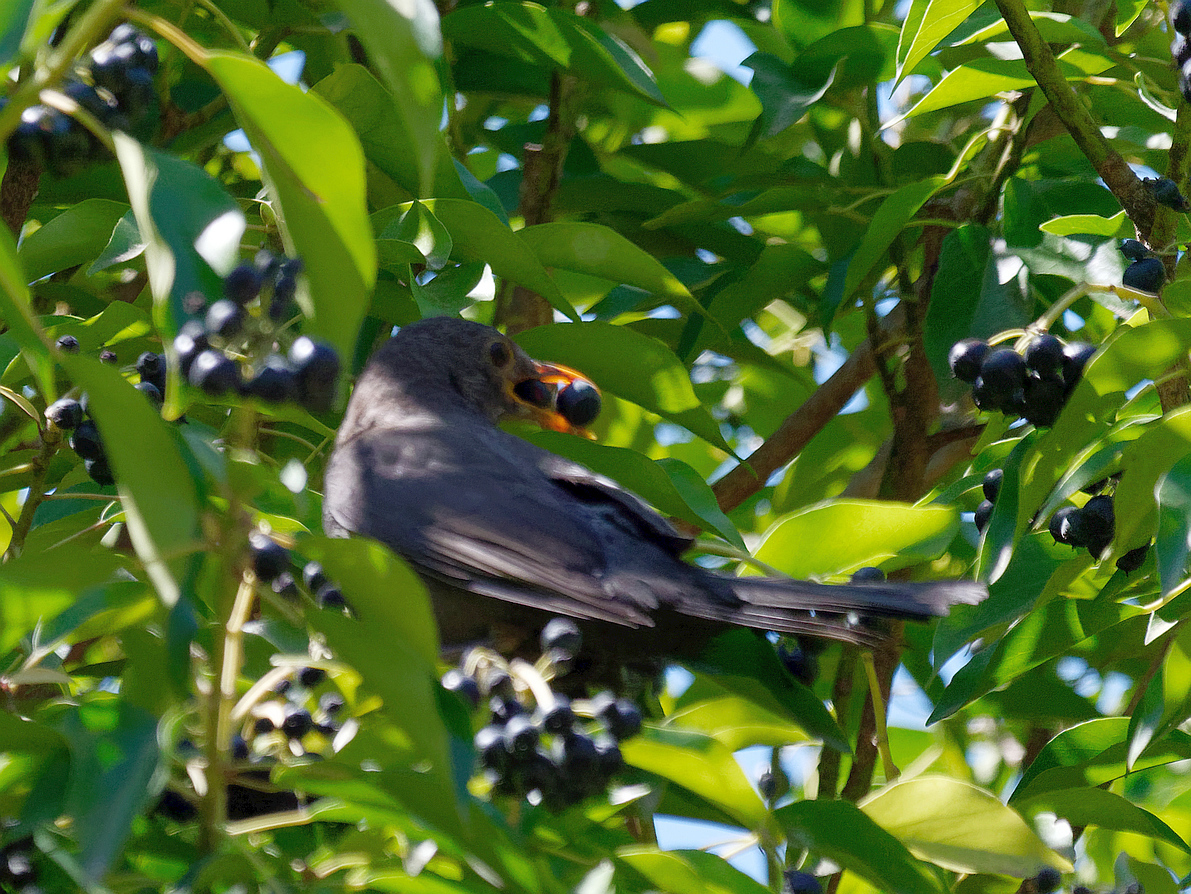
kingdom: Animalia
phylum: Chordata
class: Aves
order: Passeriformes
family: Turdidae
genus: Turdus
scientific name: Turdus merula
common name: Common blackbird
